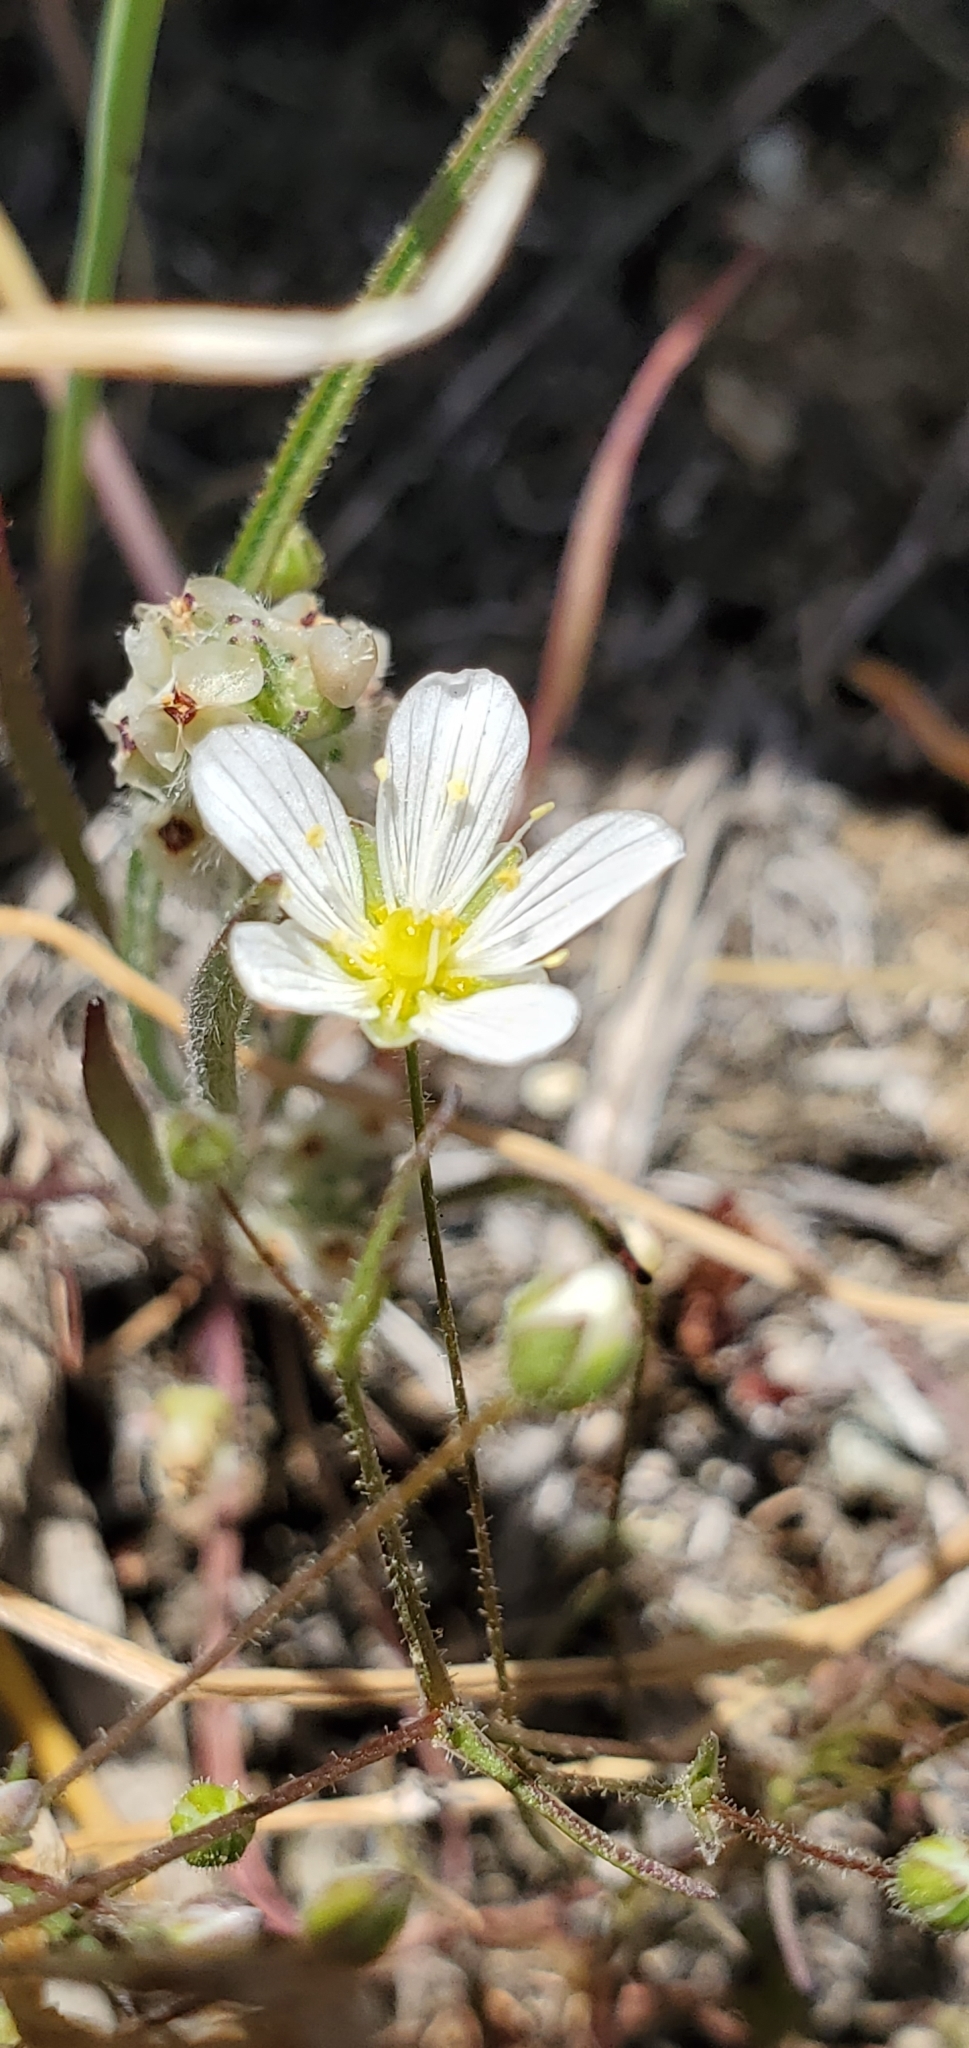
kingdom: Plantae
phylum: Tracheophyta
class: Magnoliopsida
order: Caryophyllales
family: Caryophyllaceae
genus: Sabulina
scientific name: Sabulina douglasii
